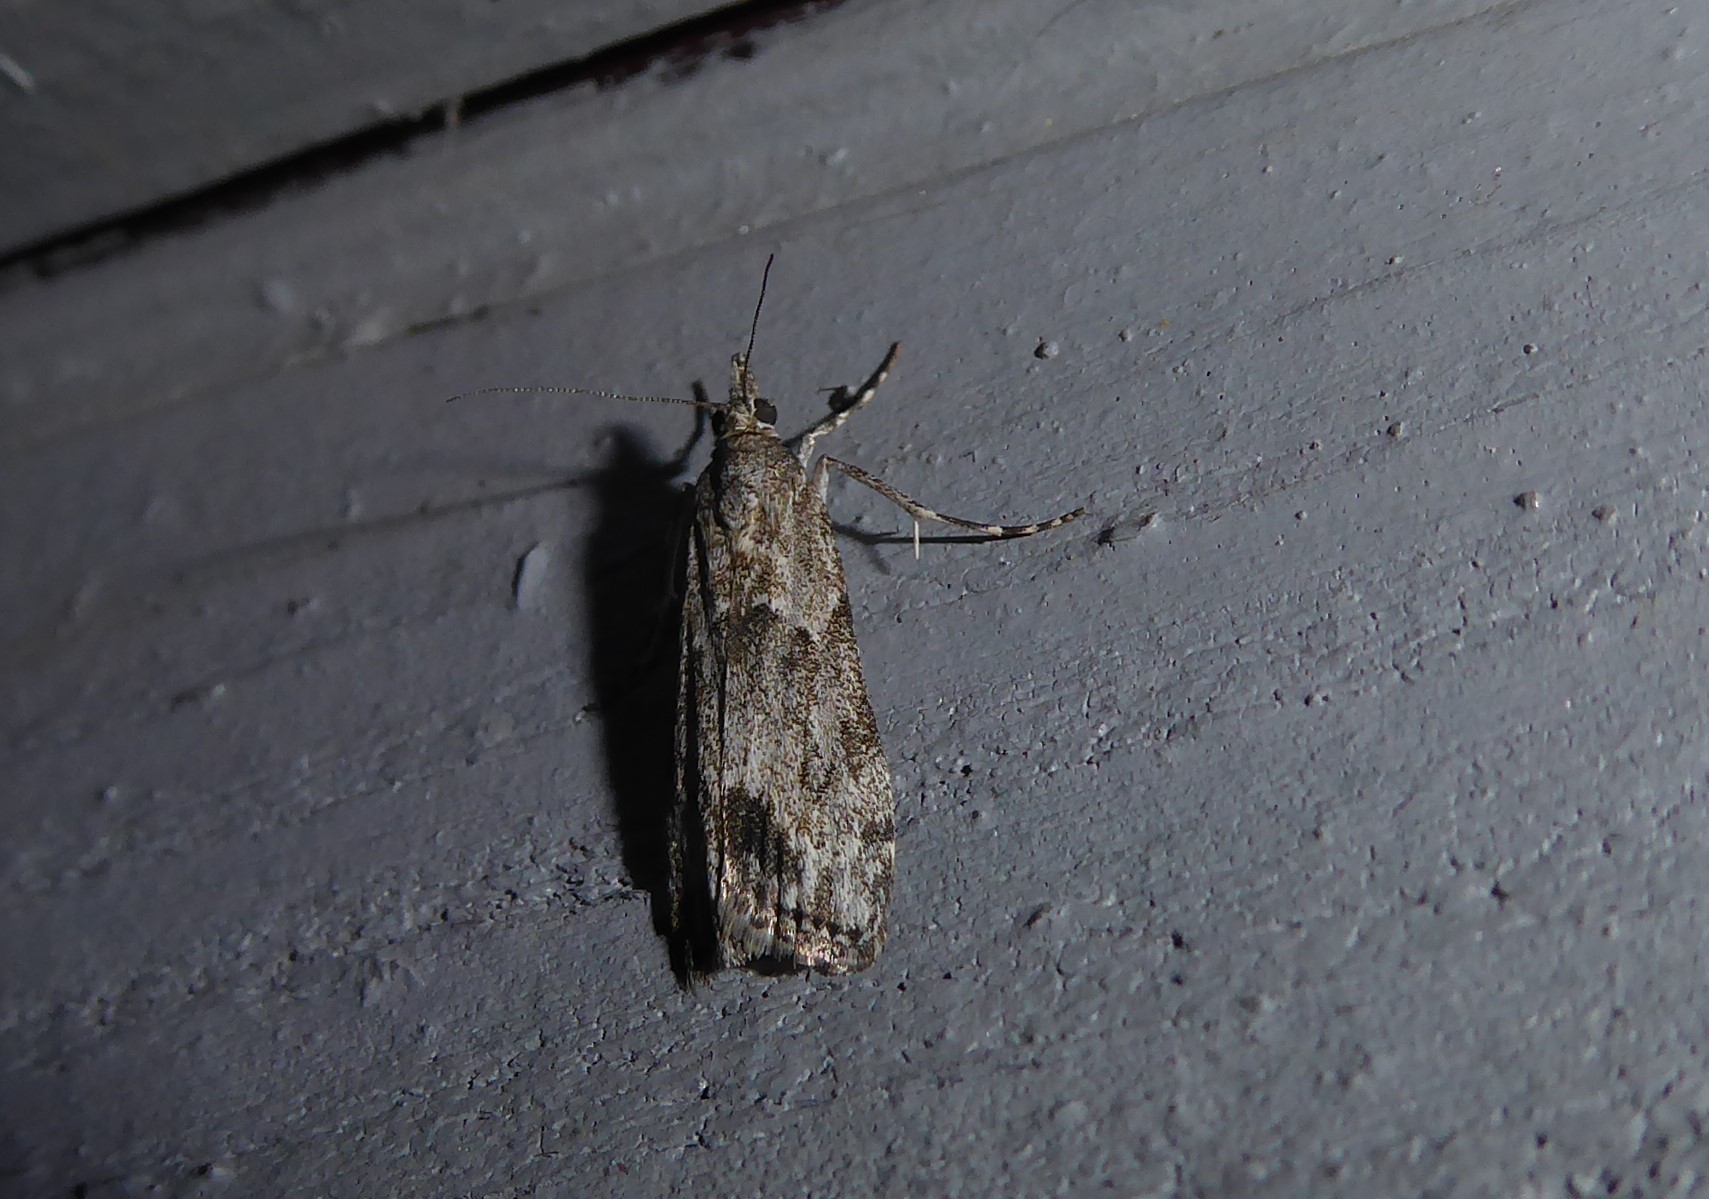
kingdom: Animalia
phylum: Arthropoda
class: Insecta
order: Lepidoptera
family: Crambidae
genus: Eudonia
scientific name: Eudonia rakaiensis
